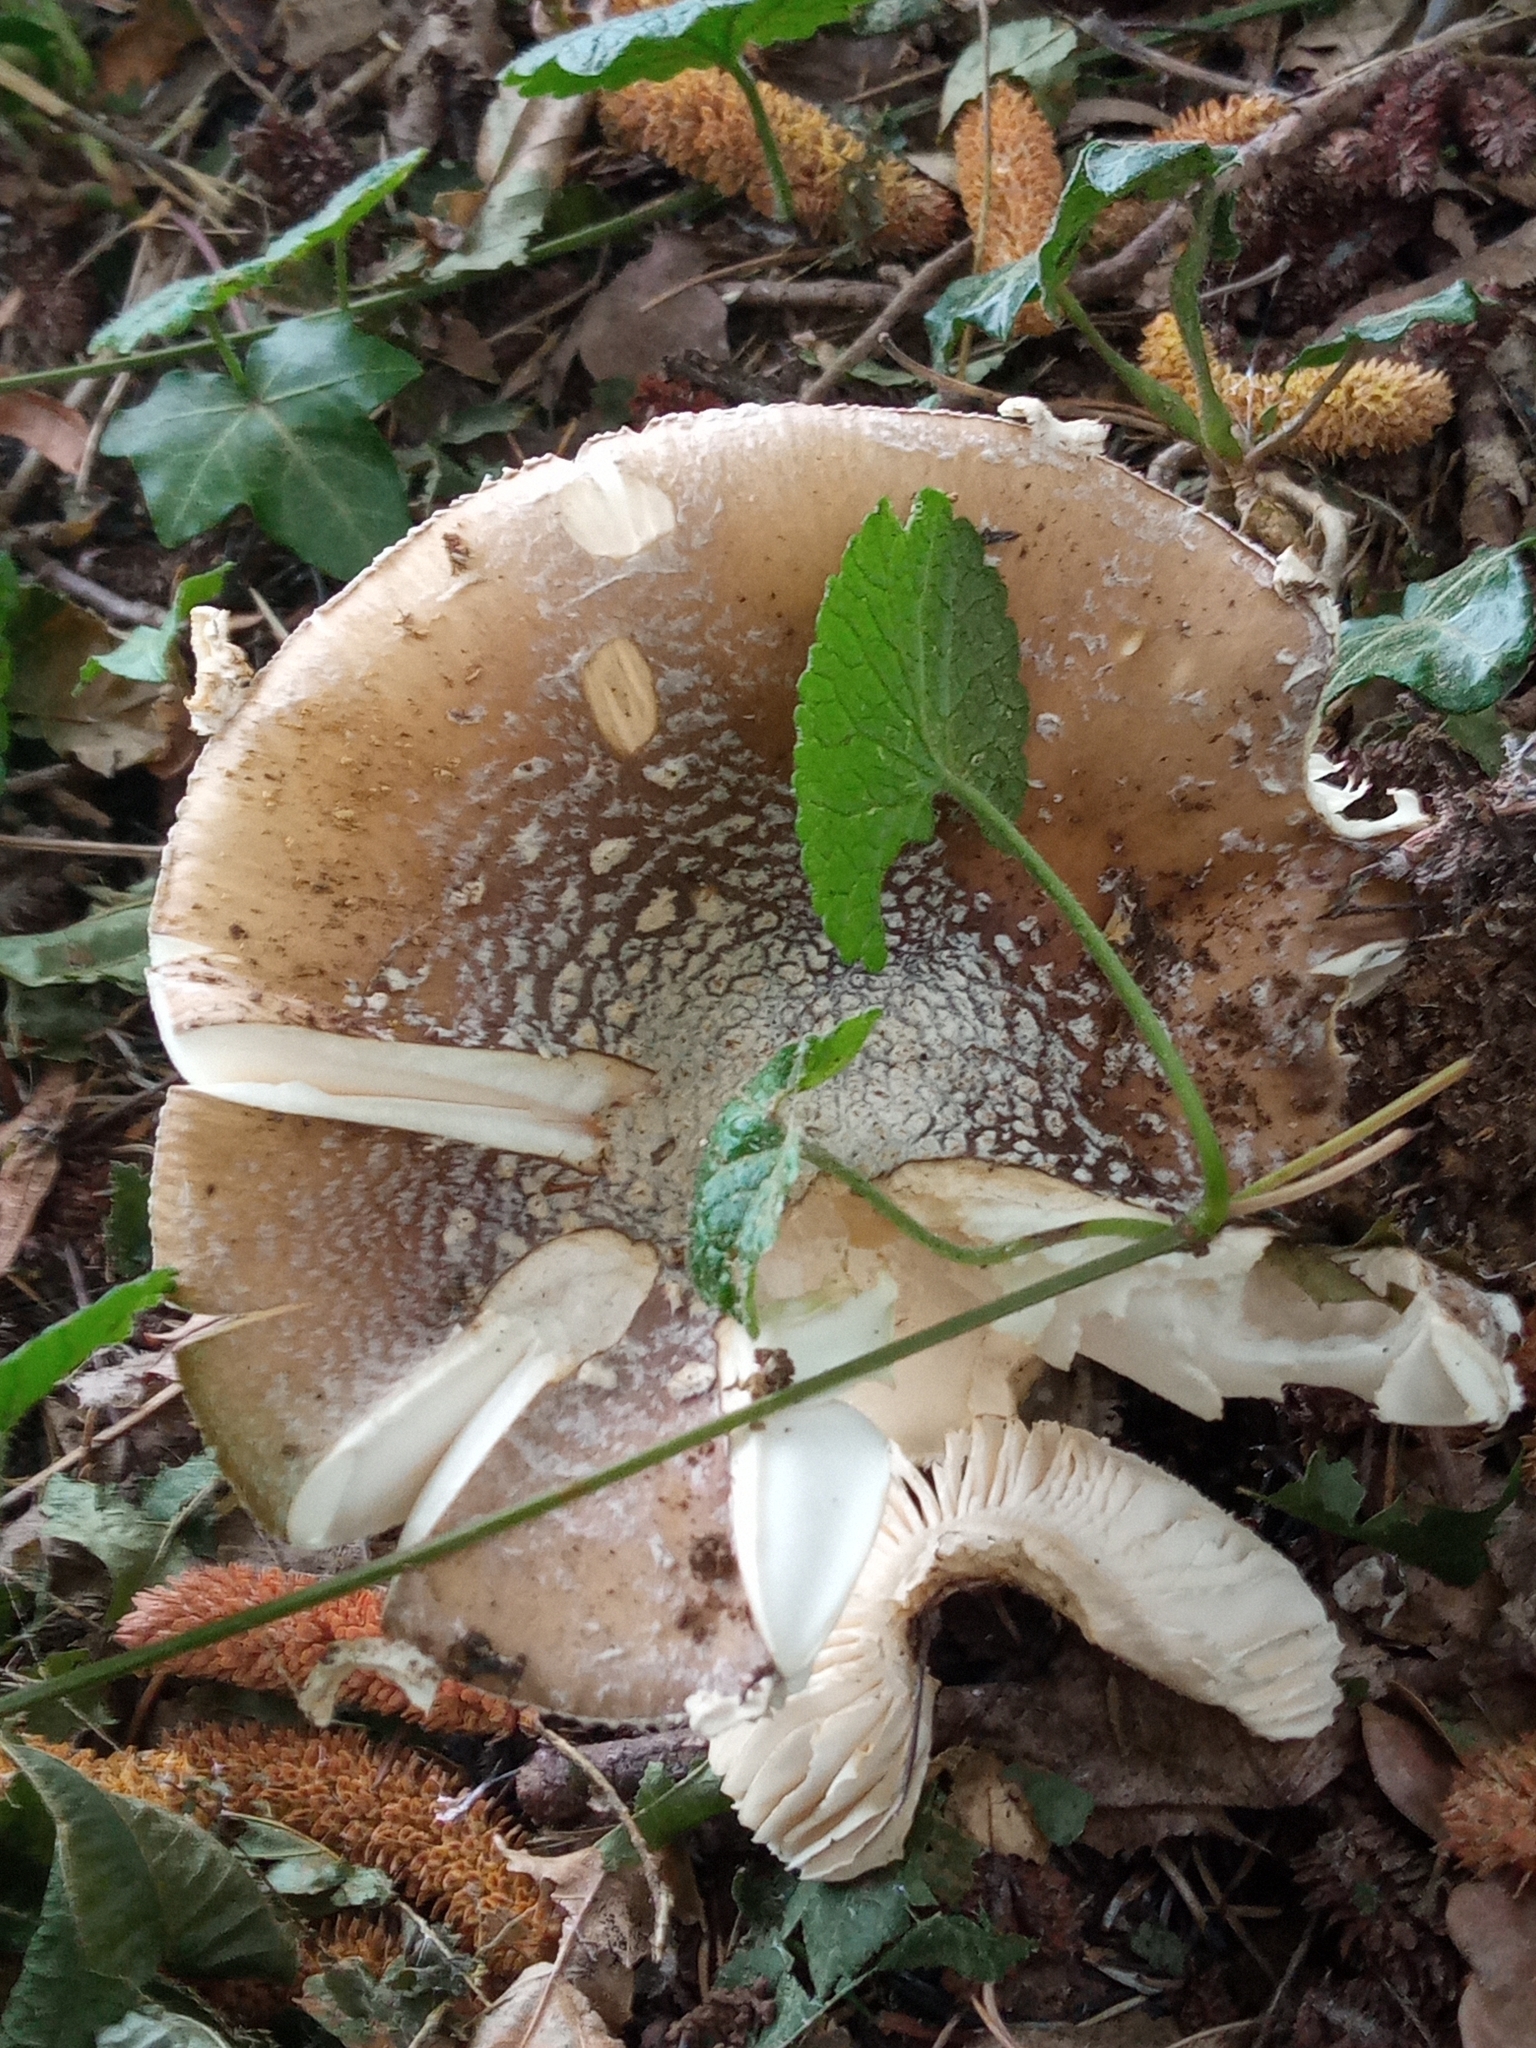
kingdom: Fungi
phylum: Basidiomycota
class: Agaricomycetes
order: Agaricales
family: Amanitaceae
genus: Amanita
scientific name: Amanita pantherina
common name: Panthercap
